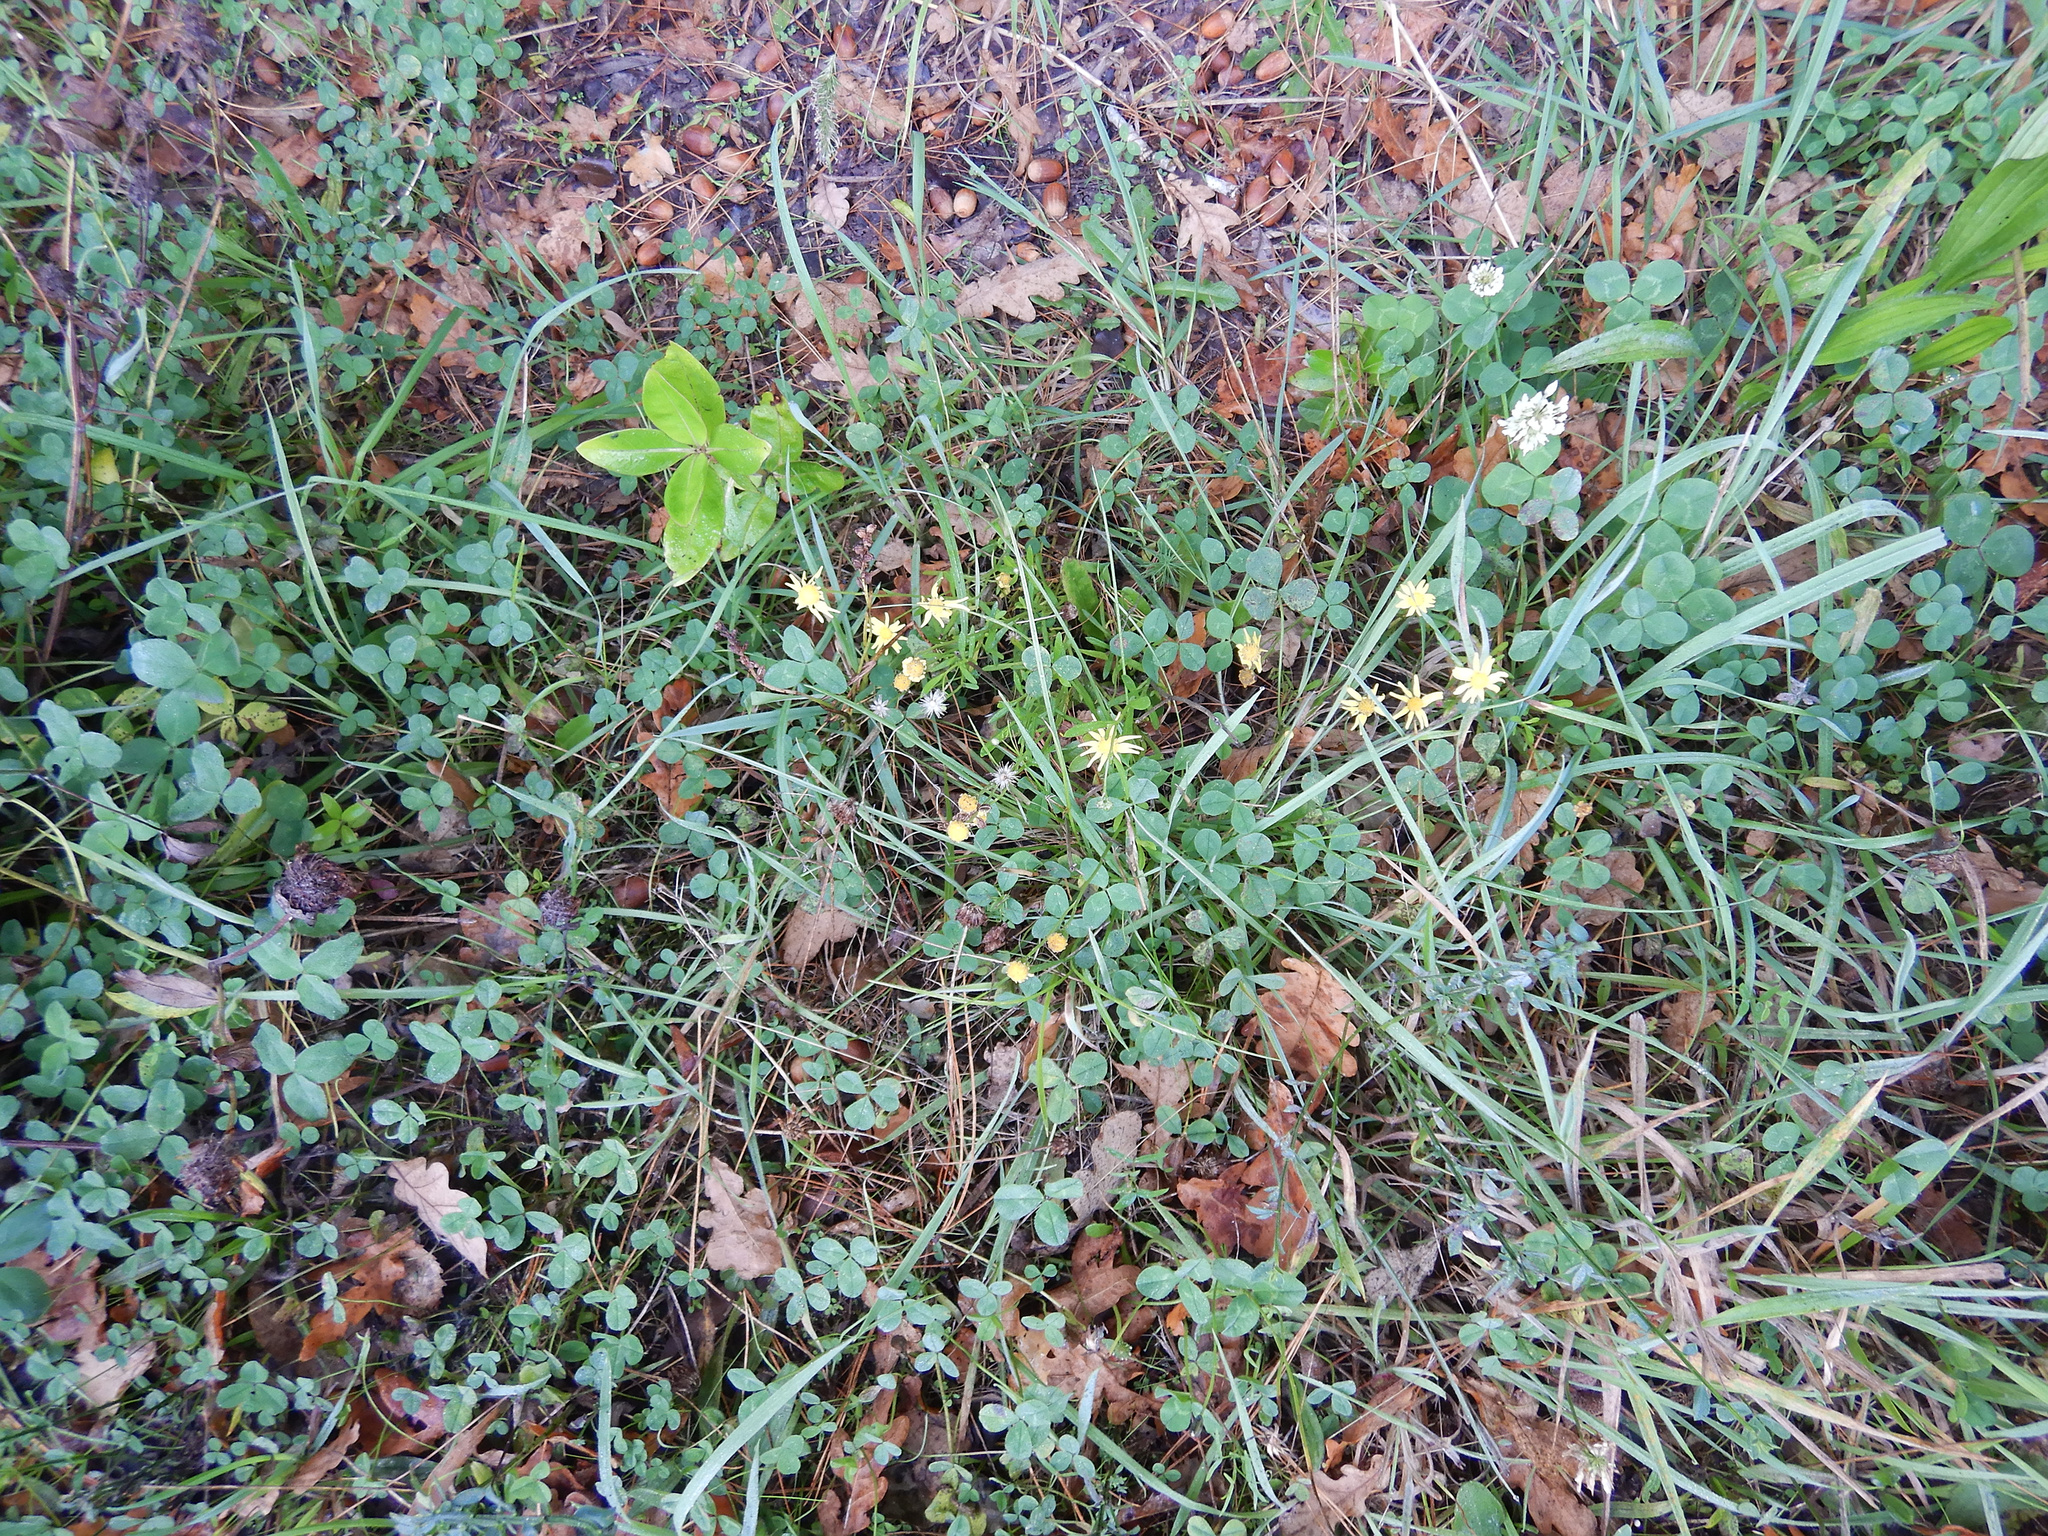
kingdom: Plantae
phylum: Tracheophyta
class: Magnoliopsida
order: Asterales
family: Asteraceae
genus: Senecio
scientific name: Senecio skirrhodon
